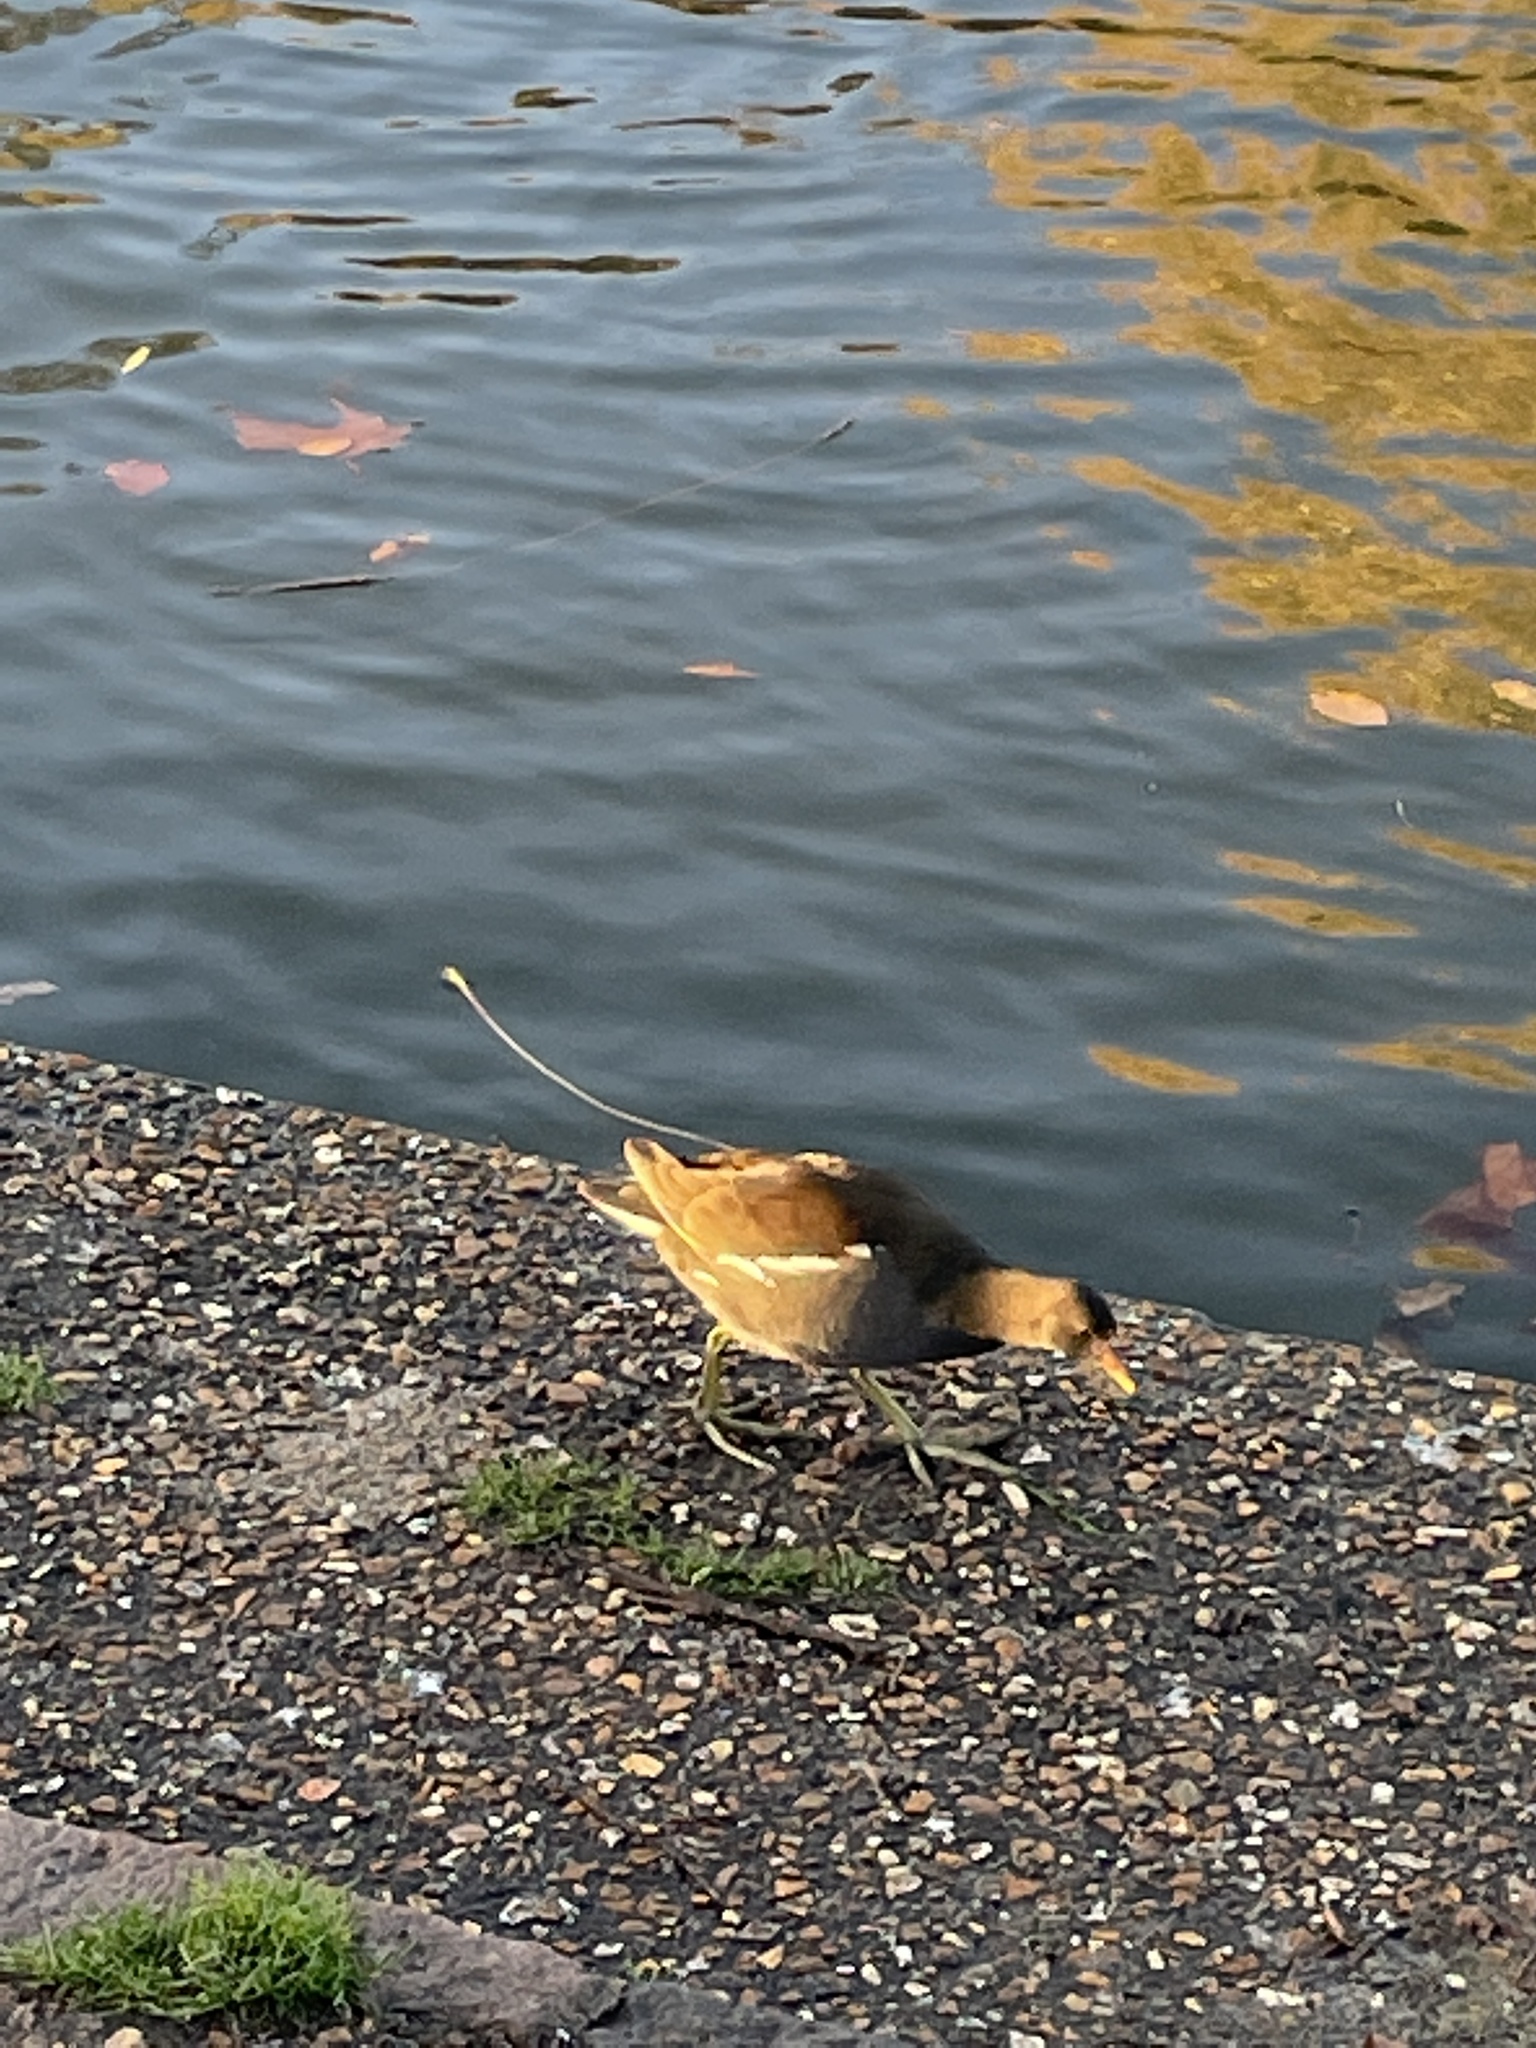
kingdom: Animalia
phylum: Chordata
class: Aves
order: Gruiformes
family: Rallidae
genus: Gallinula
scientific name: Gallinula chloropus
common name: Common moorhen
